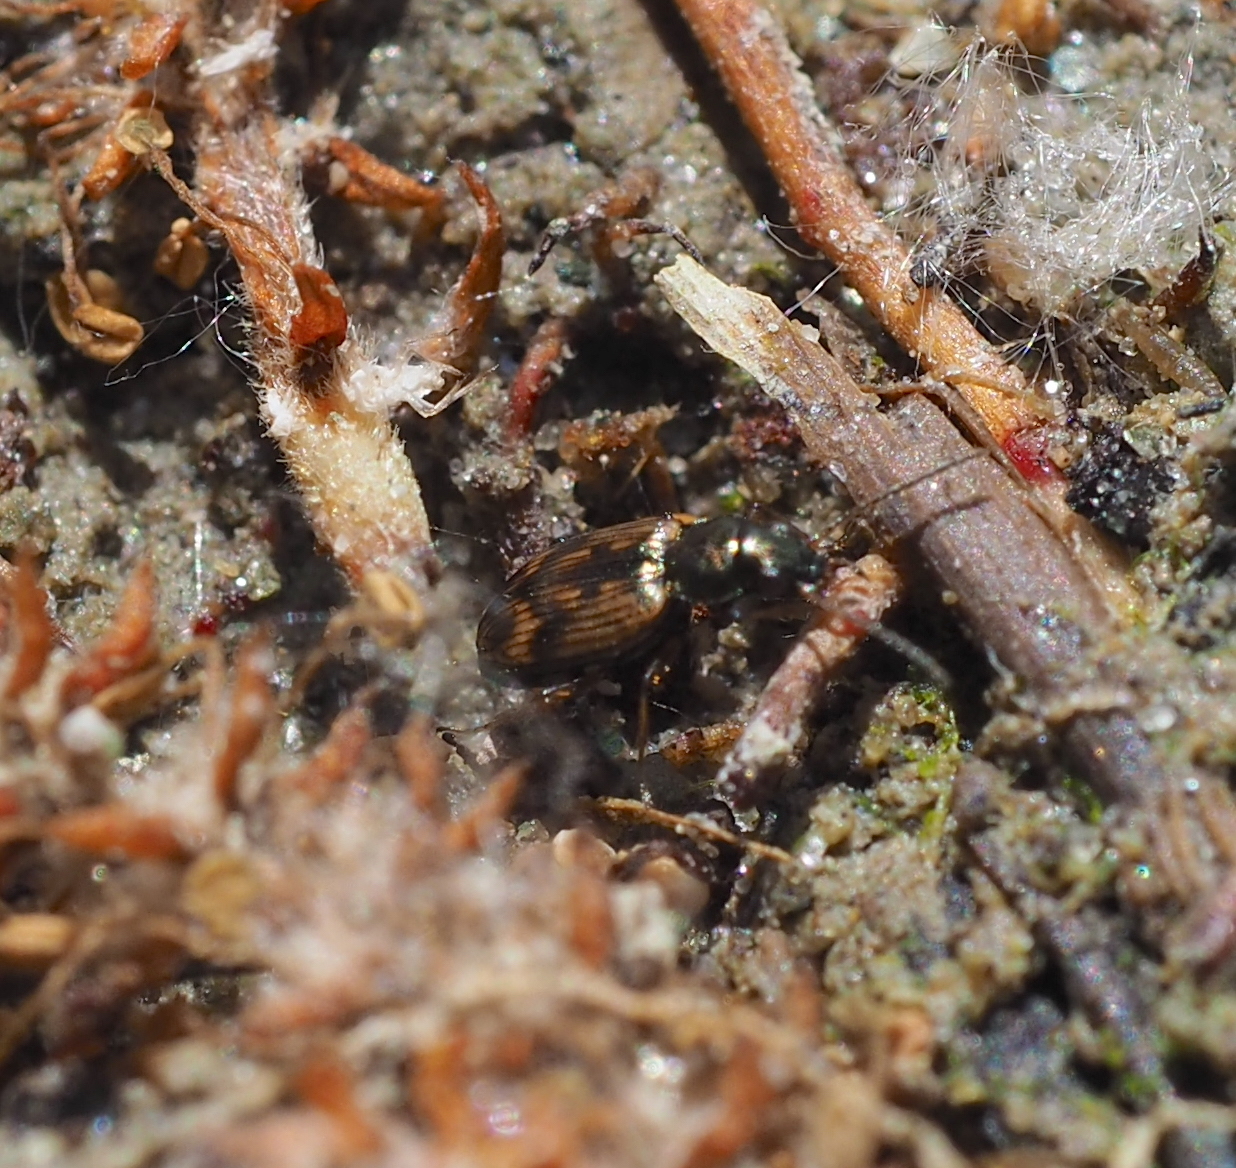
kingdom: Animalia
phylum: Arthropoda
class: Insecta
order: Coleoptera
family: Carabidae
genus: Bembidion
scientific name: Bembidion semipunctatum
